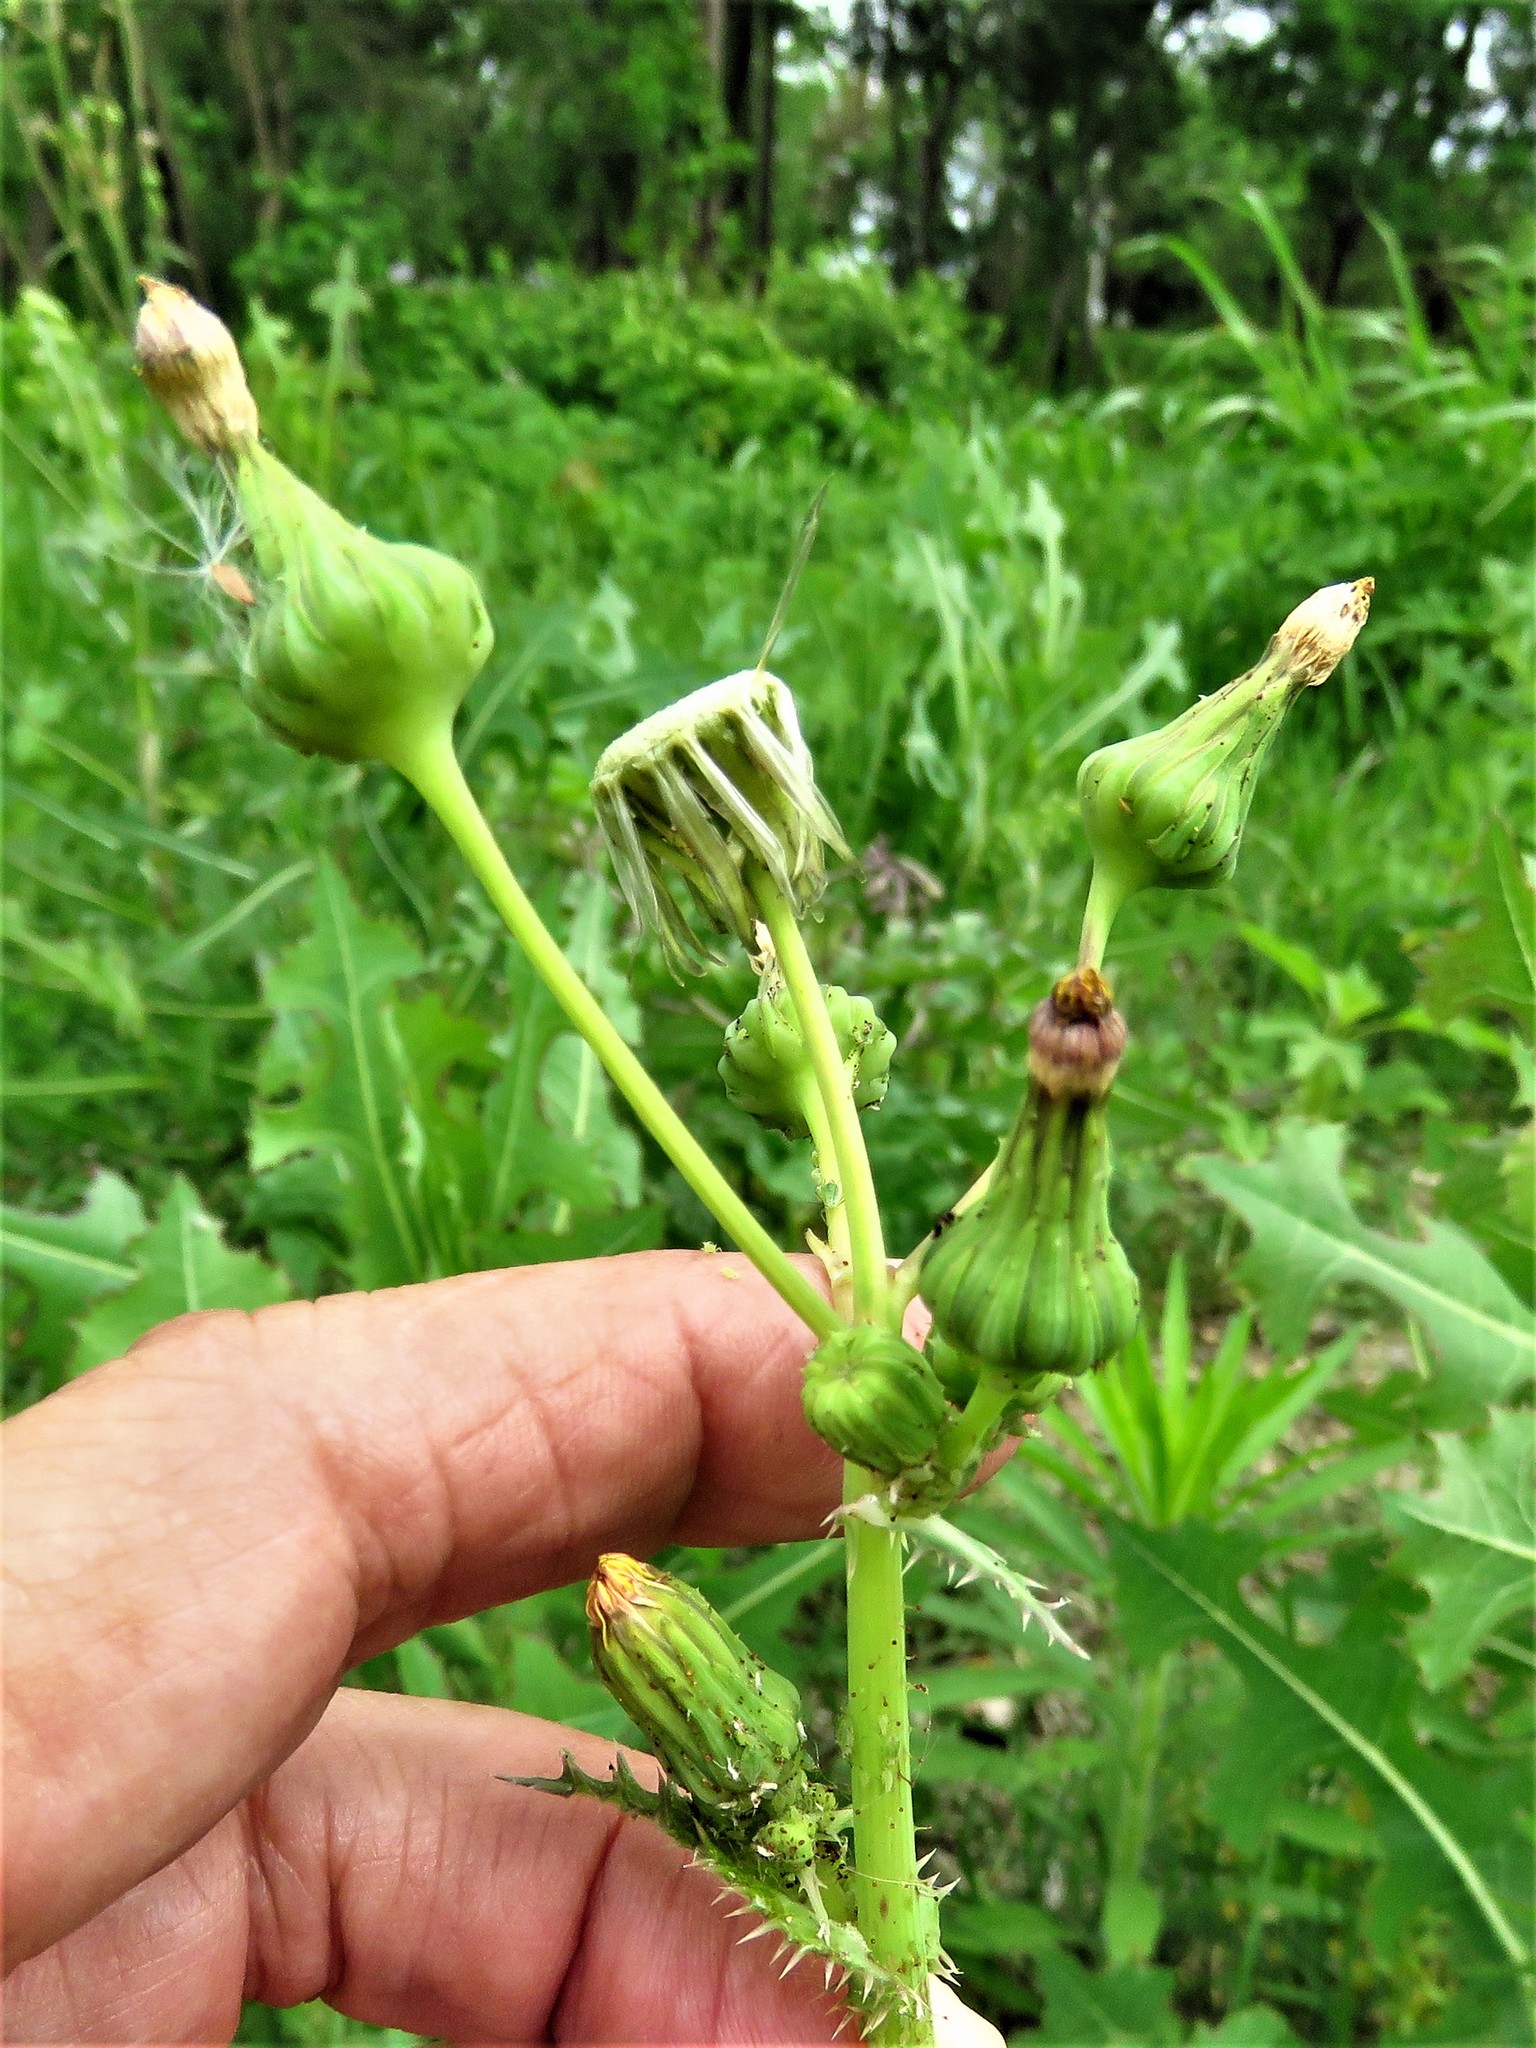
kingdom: Plantae
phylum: Tracheophyta
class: Magnoliopsida
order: Asterales
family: Asteraceae
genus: Sonchus
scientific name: Sonchus asper
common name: Prickly sow-thistle
